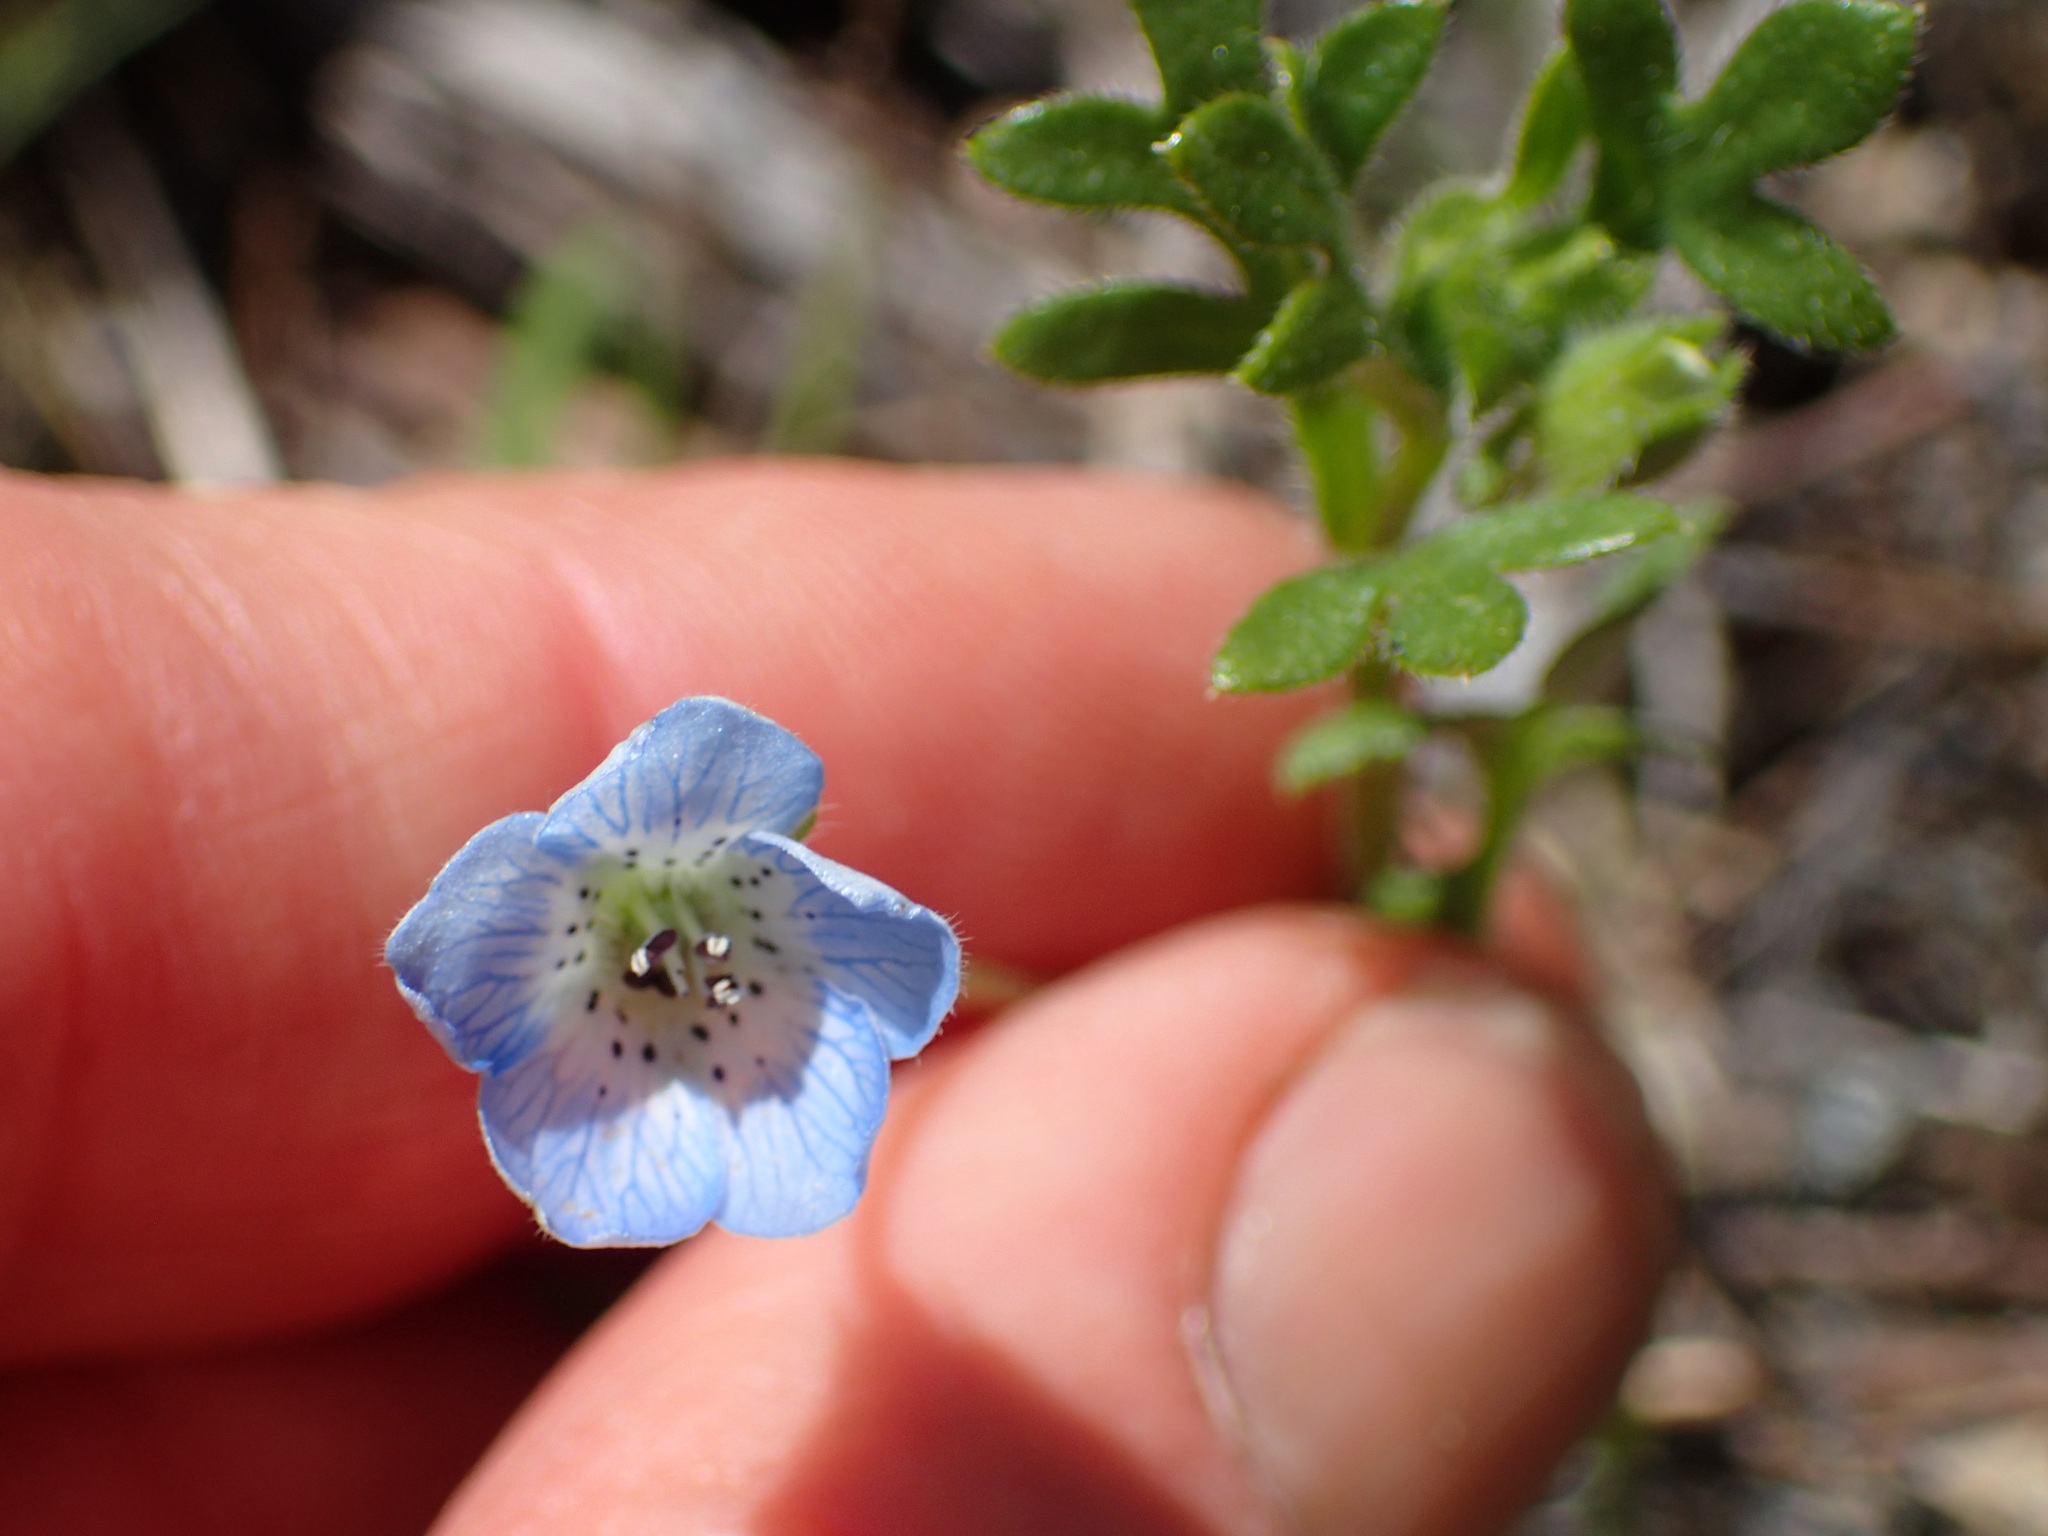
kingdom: Plantae
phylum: Tracheophyta
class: Magnoliopsida
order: Boraginales
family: Hydrophyllaceae
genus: Nemophila
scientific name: Nemophila menziesii
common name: Baby's-blue-eyes
